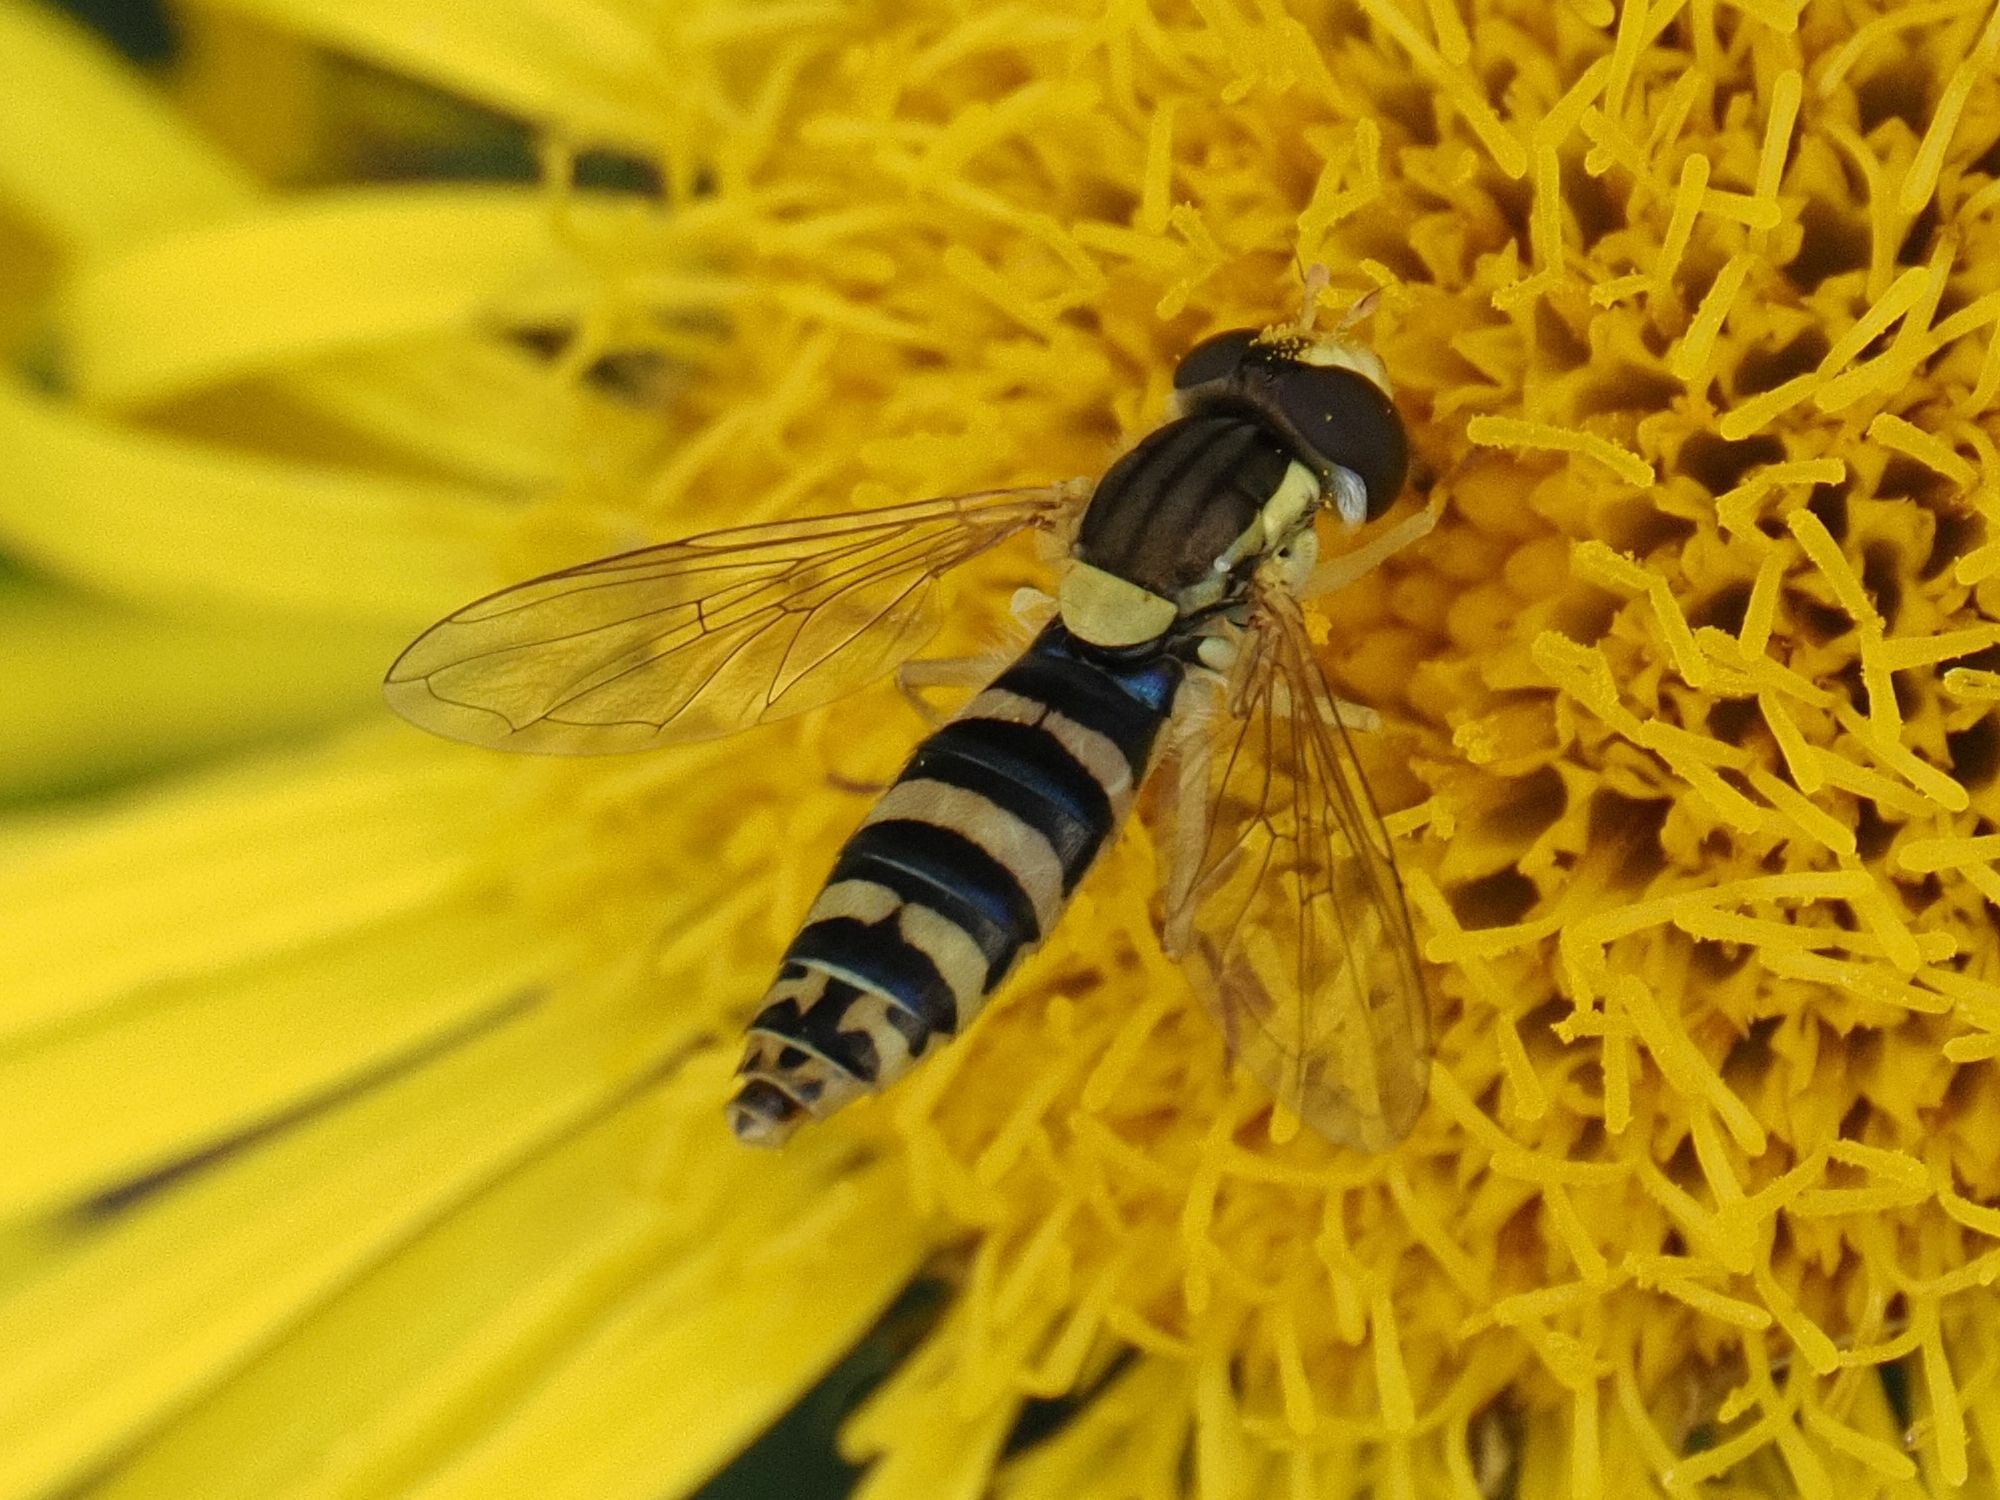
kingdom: Animalia
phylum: Arthropoda
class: Insecta
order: Diptera
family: Syrphidae
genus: Sphaerophoria
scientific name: Sphaerophoria
